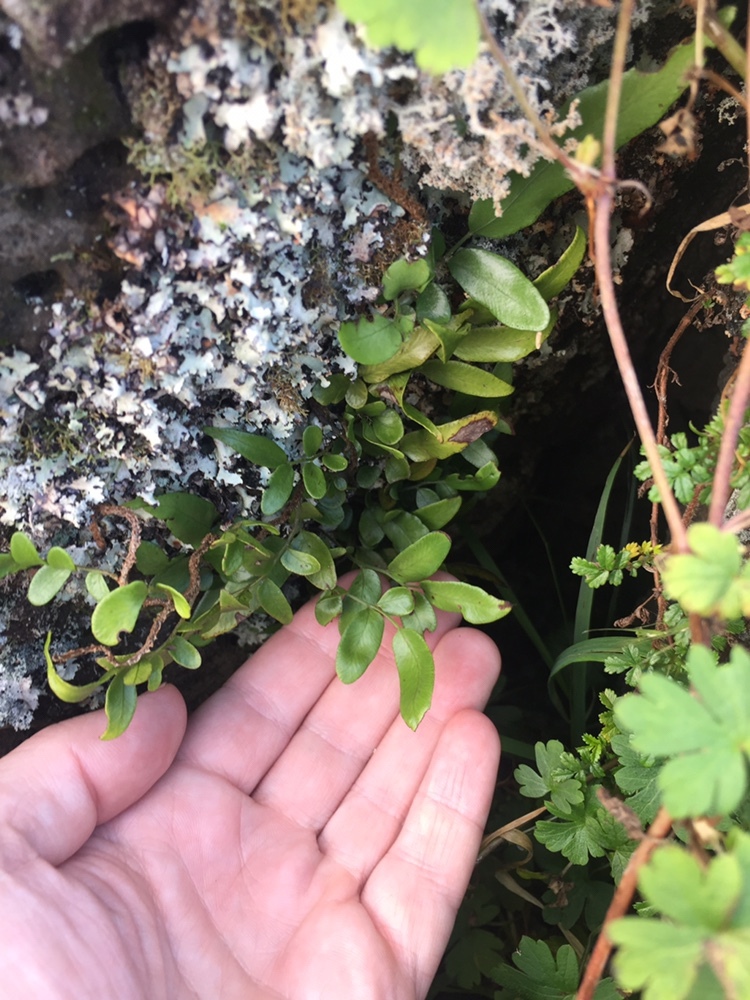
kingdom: Plantae
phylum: Tracheophyta
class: Polypodiopsida
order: Polypodiales
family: Tectariaceae
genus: Arthropteris
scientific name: Arthropteris tenella
